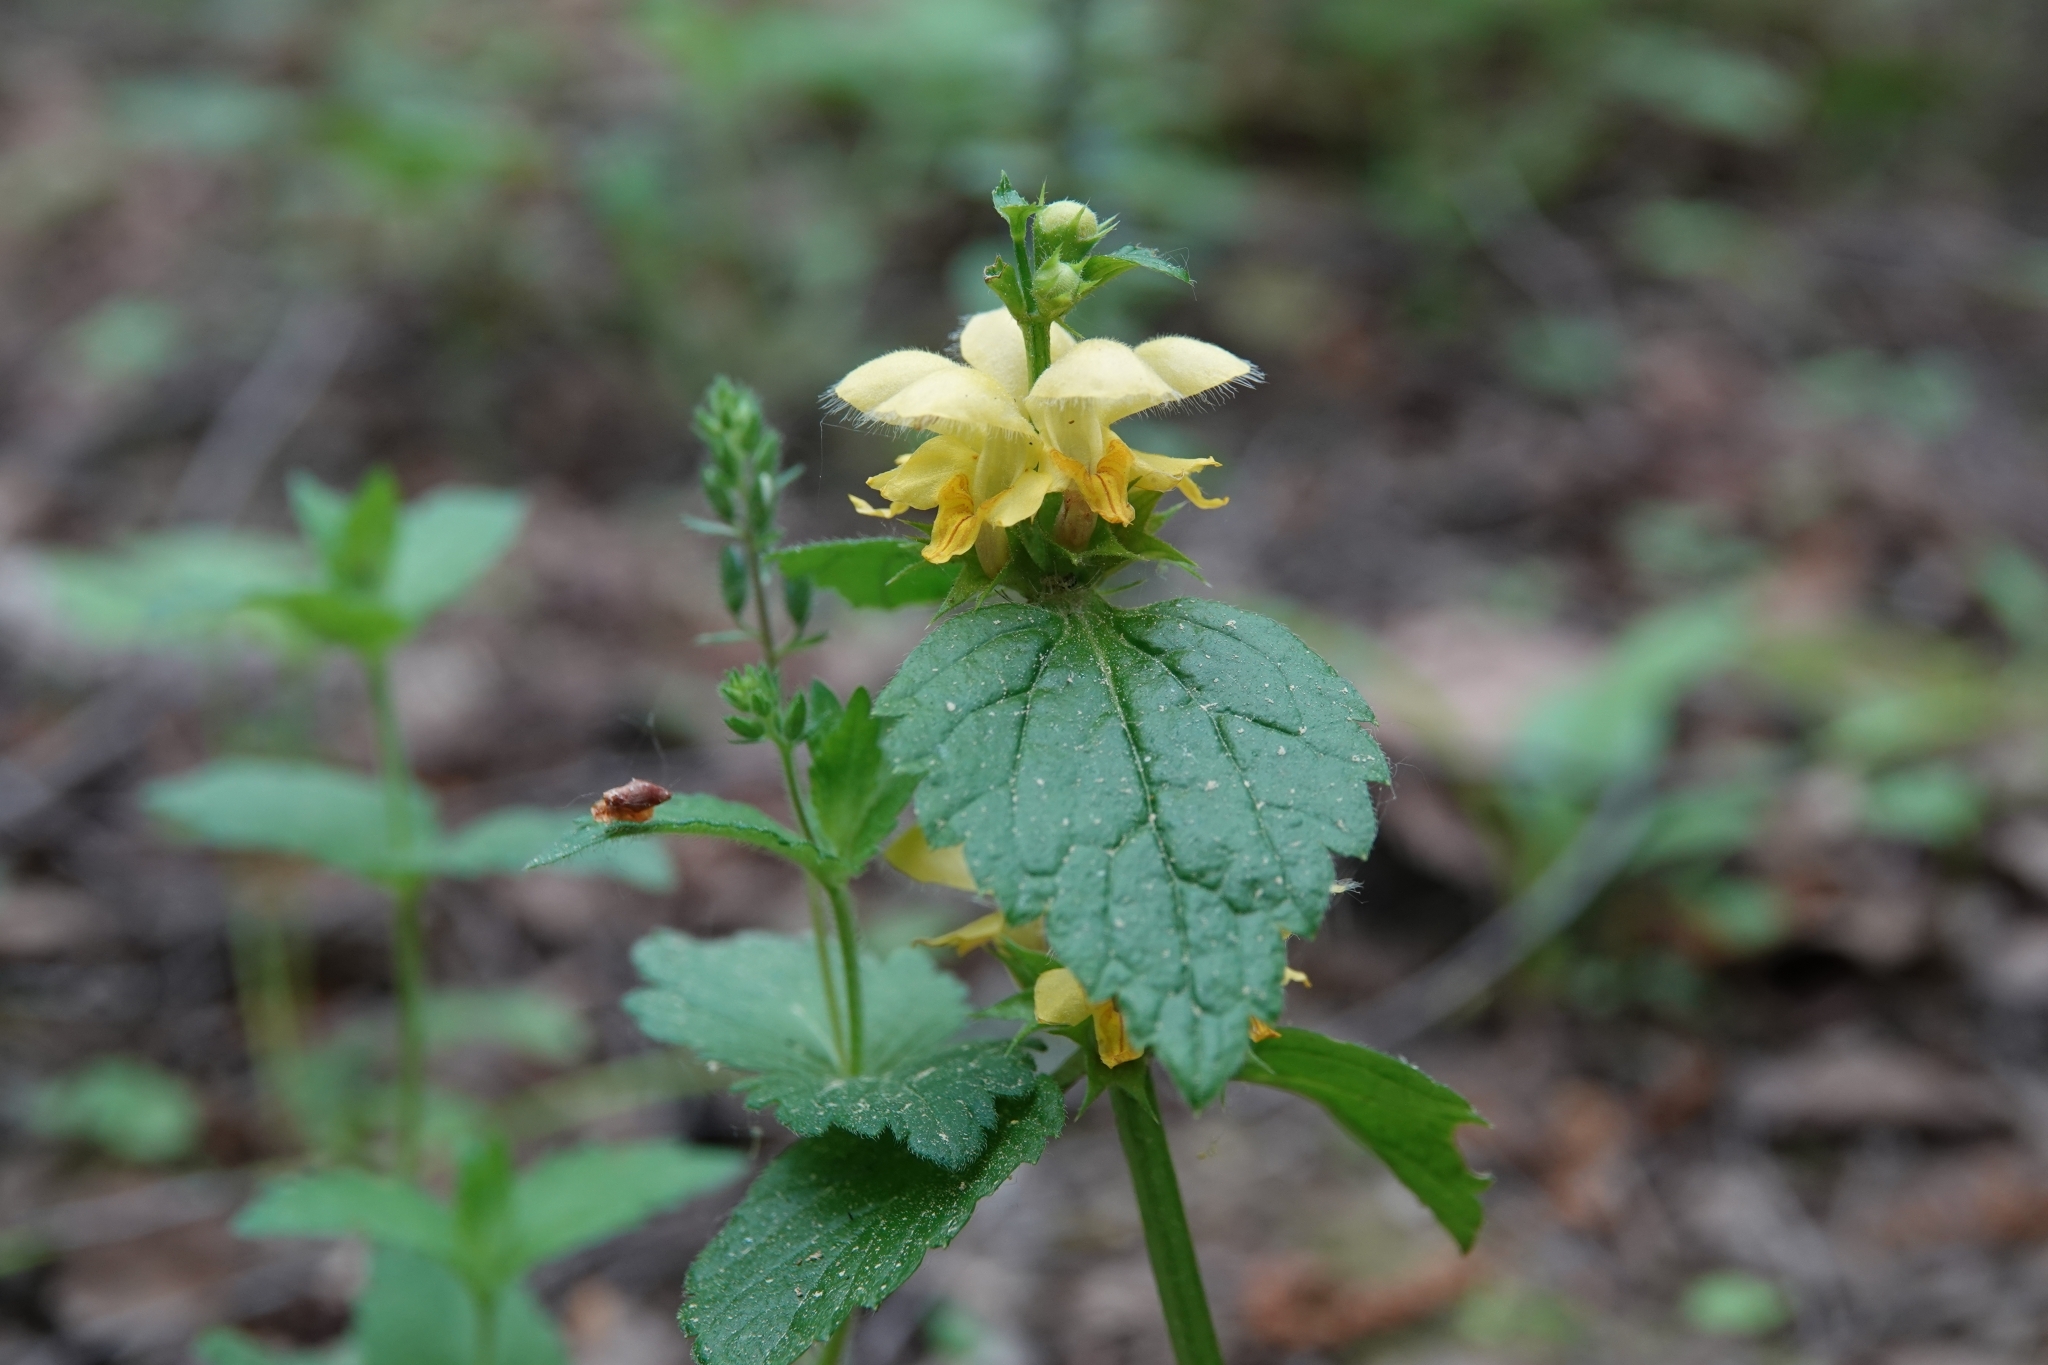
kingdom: Plantae
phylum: Tracheophyta
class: Magnoliopsida
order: Lamiales
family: Lamiaceae
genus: Lamium
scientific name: Lamium galeobdolon
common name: Yellow archangel
